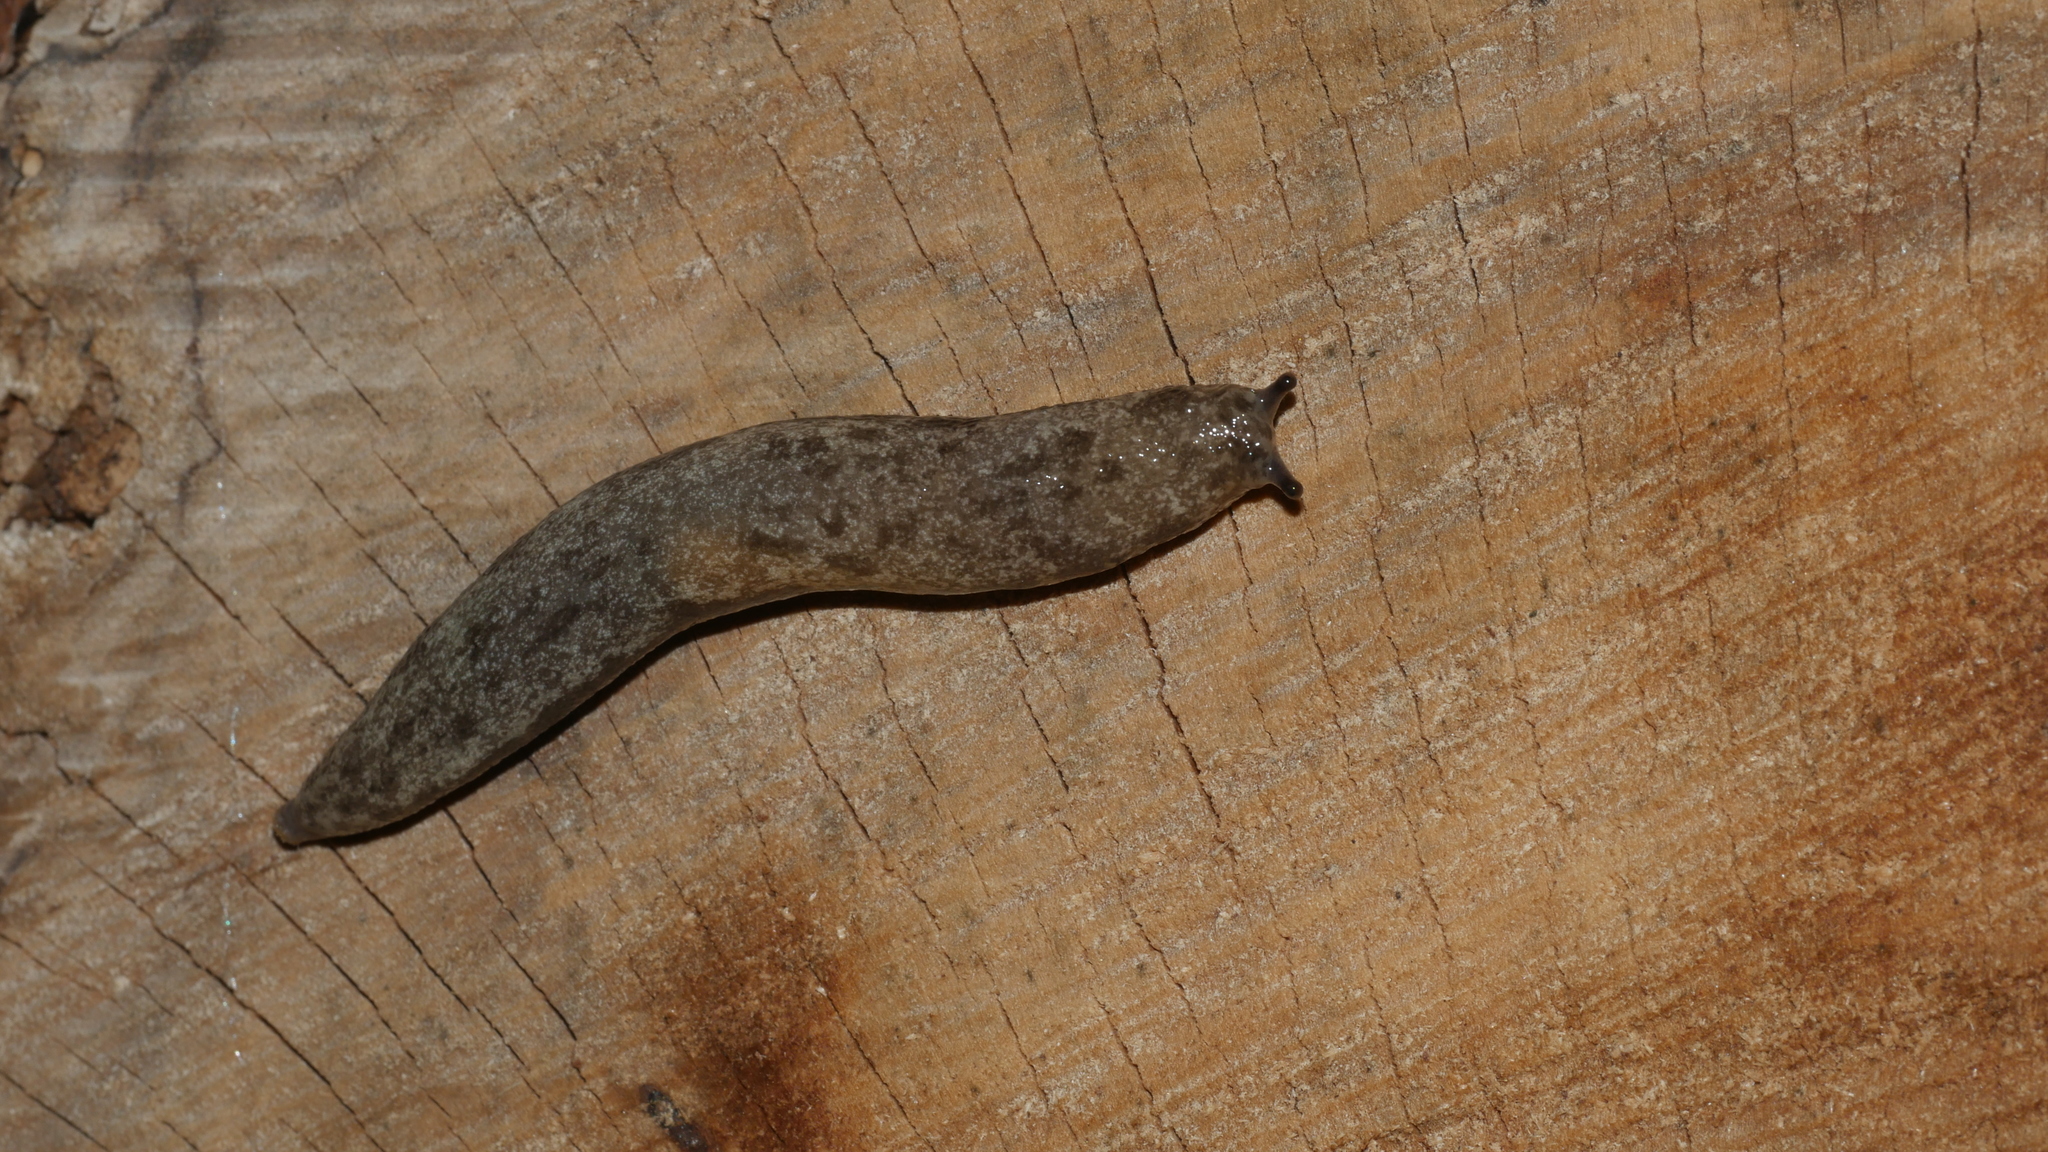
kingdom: Animalia
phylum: Mollusca
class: Gastropoda
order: Stylommatophora
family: Philomycidae
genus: Megapallifera
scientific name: Megapallifera mutabilis
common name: Changeable mantleslug
